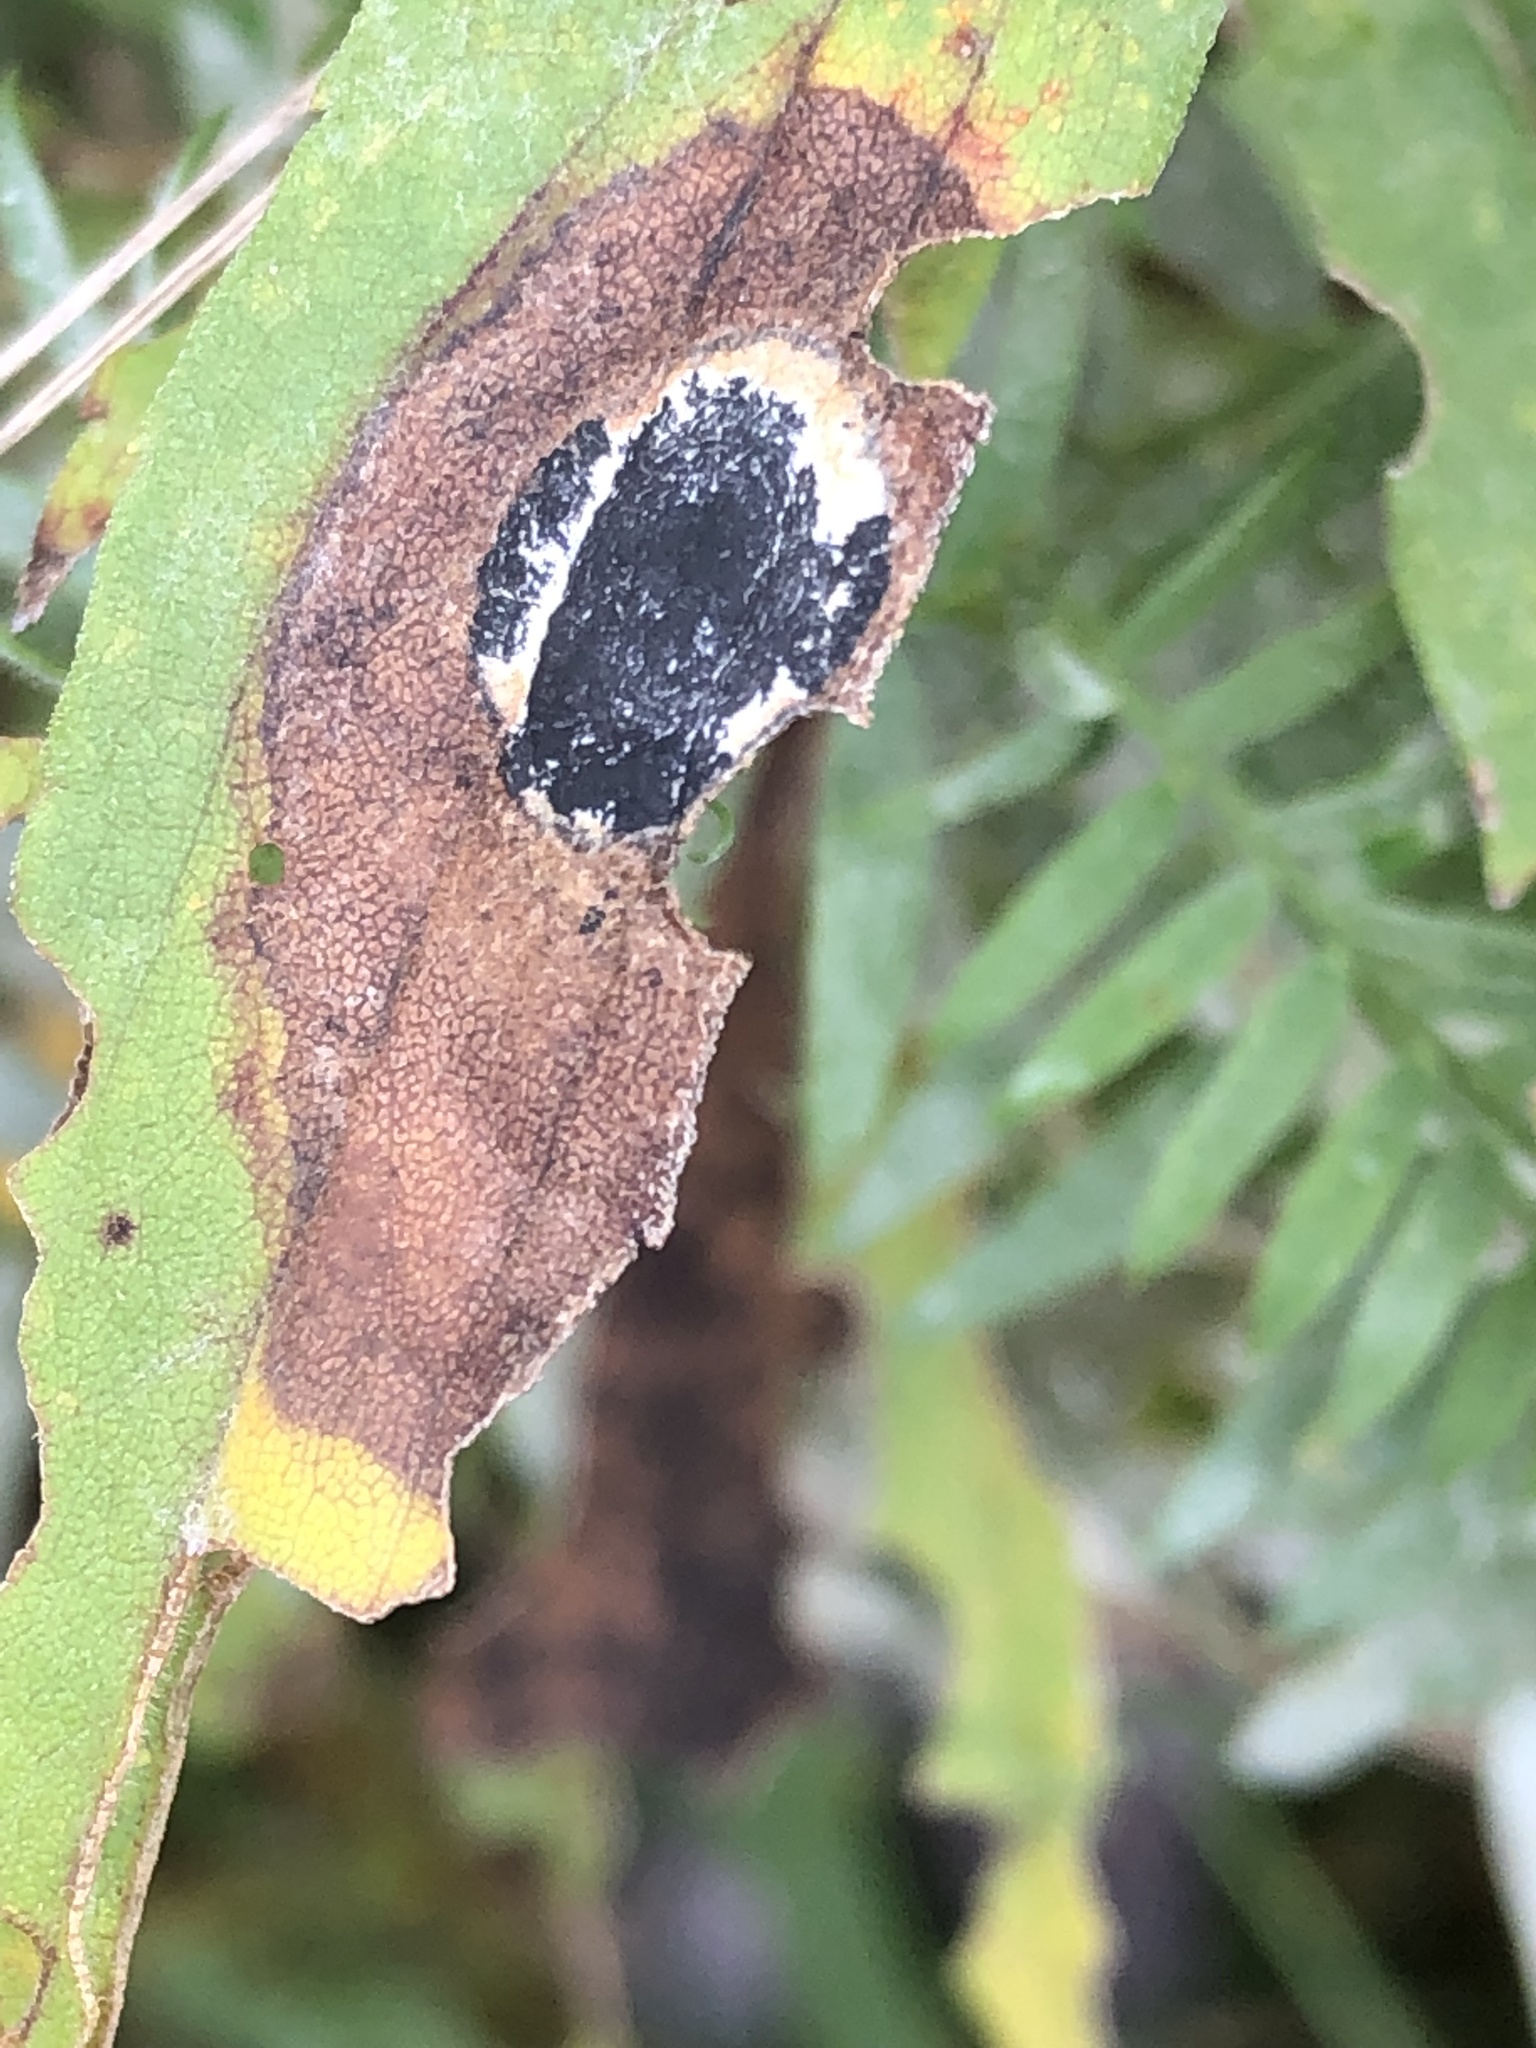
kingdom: Animalia
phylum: Arthropoda
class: Insecta
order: Diptera
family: Cecidomyiidae
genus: Asteromyia
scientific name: Asteromyia carbonifera
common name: Carbonifera goldenrod gall midge
